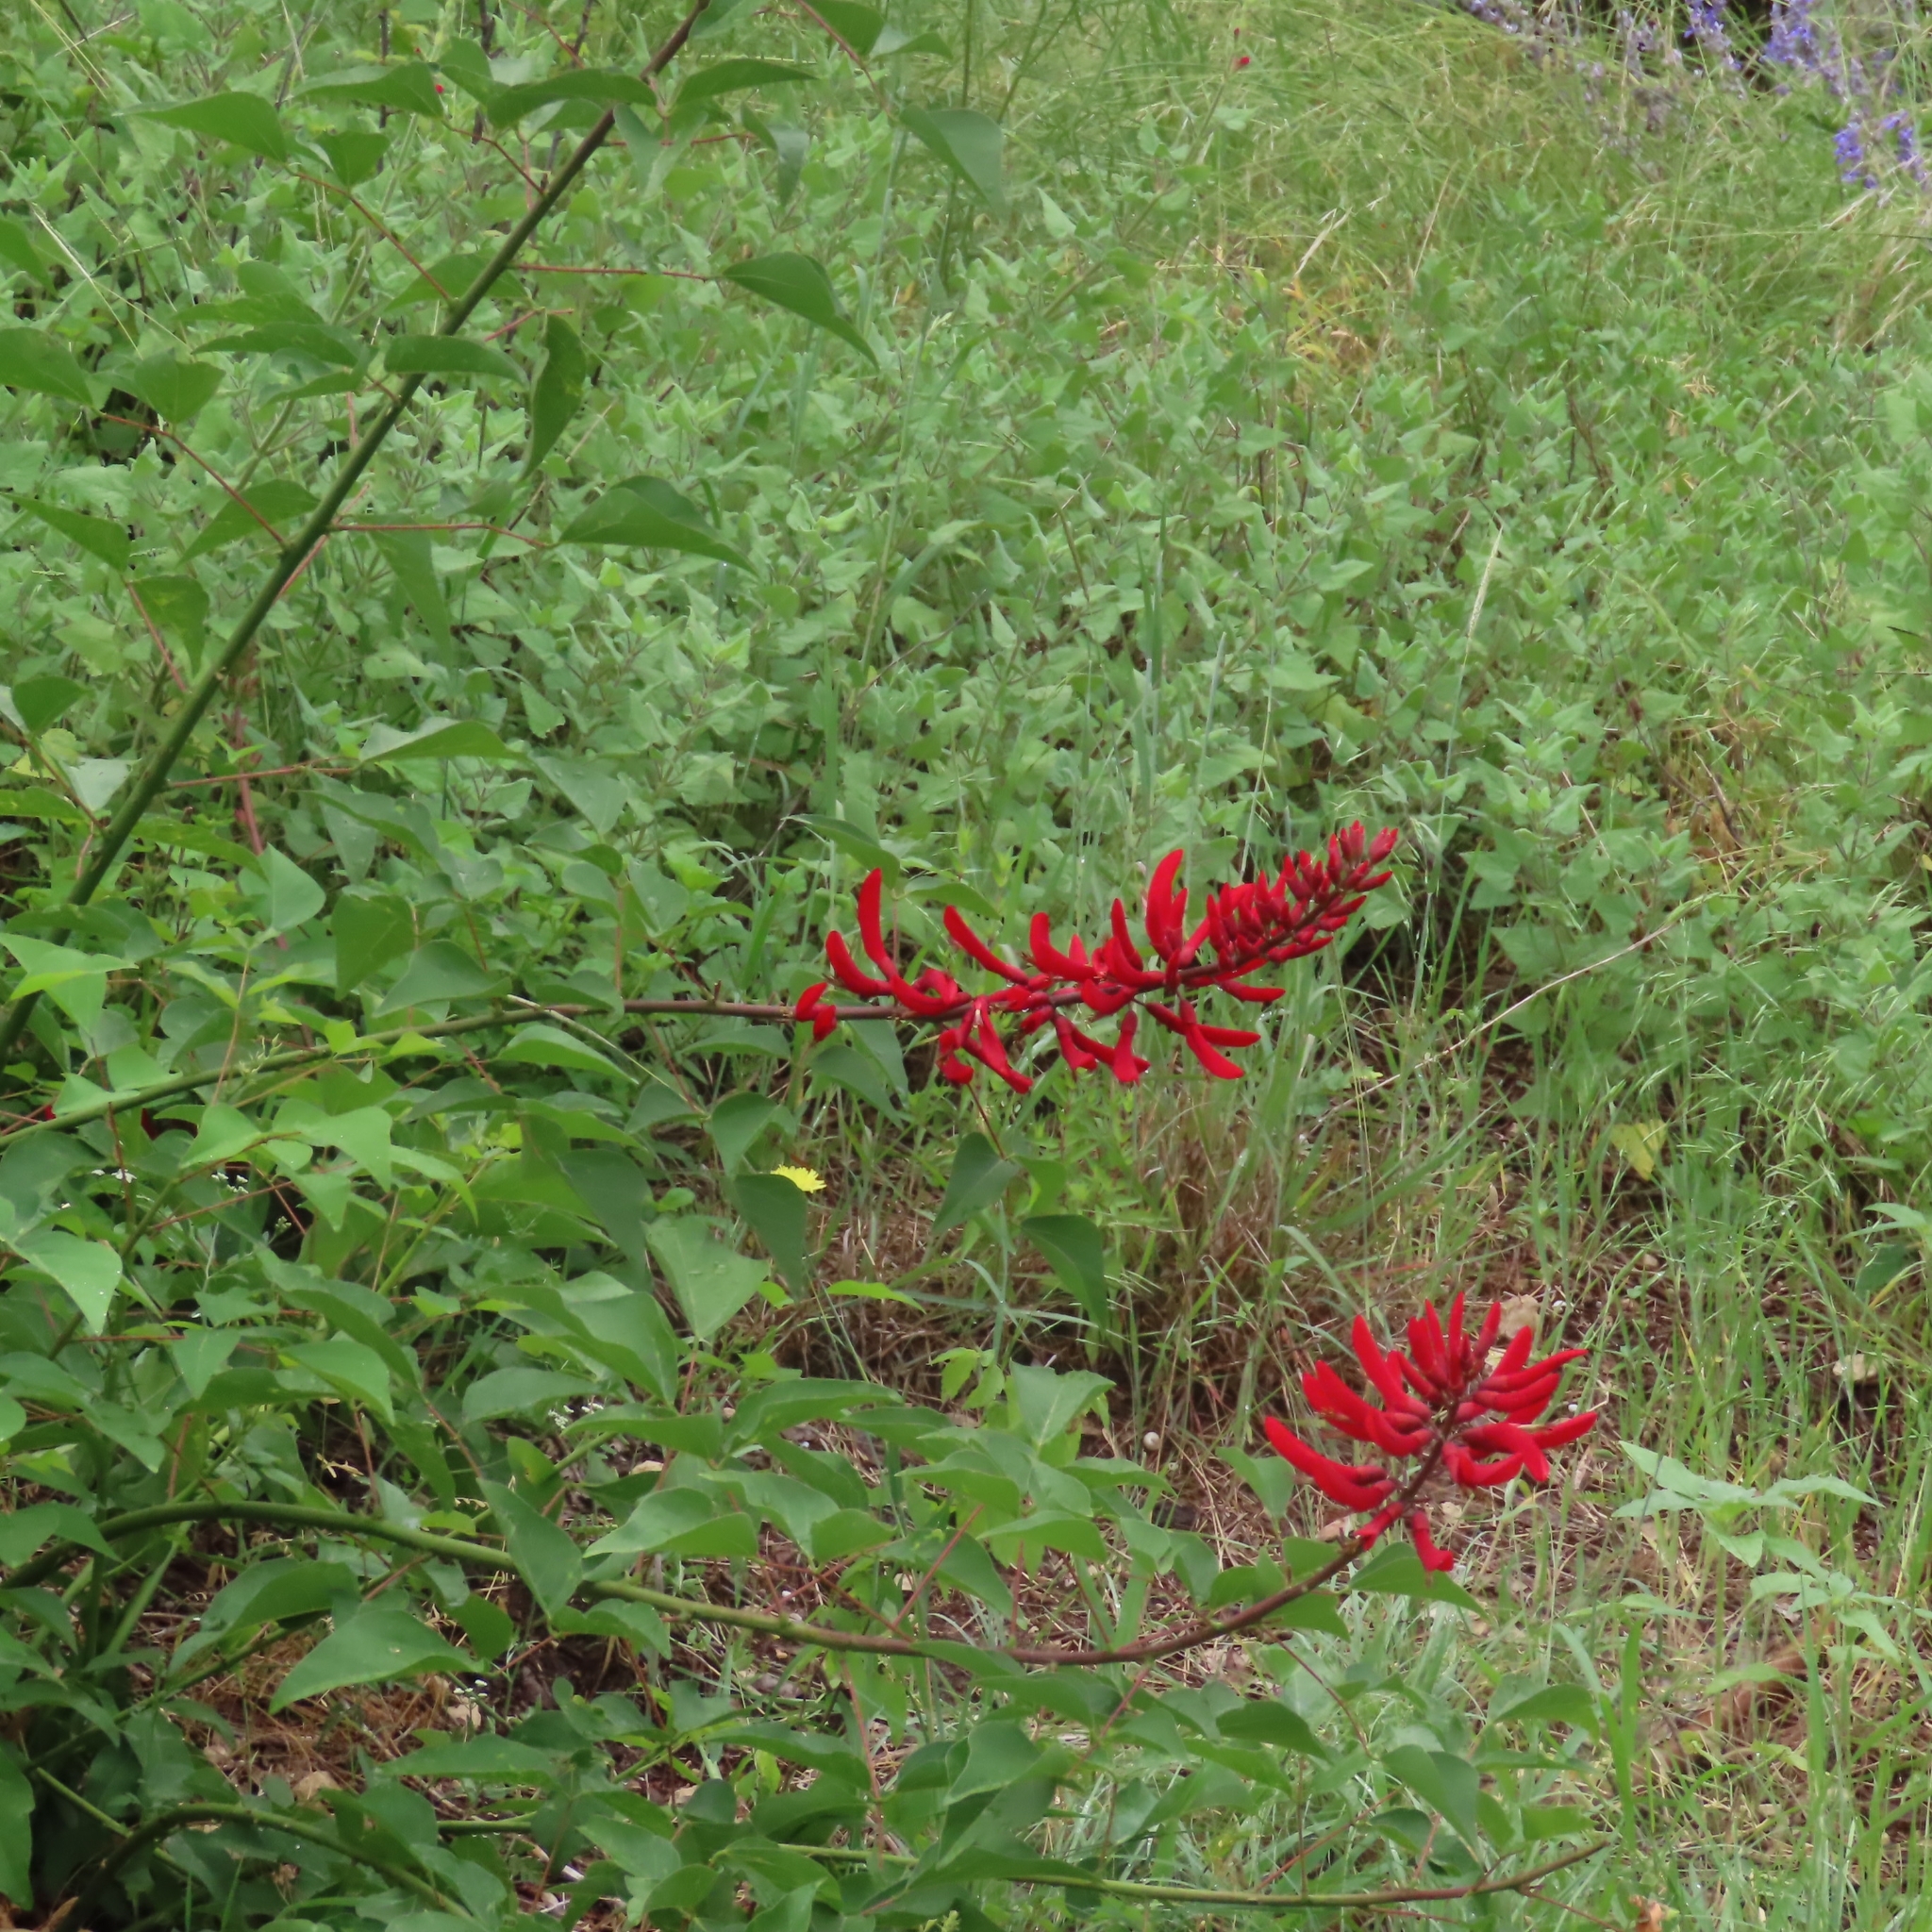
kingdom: Plantae
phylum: Tracheophyta
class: Magnoliopsida
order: Fabales
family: Fabaceae
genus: Erythrina
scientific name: Erythrina herbacea
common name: Coral-bean
